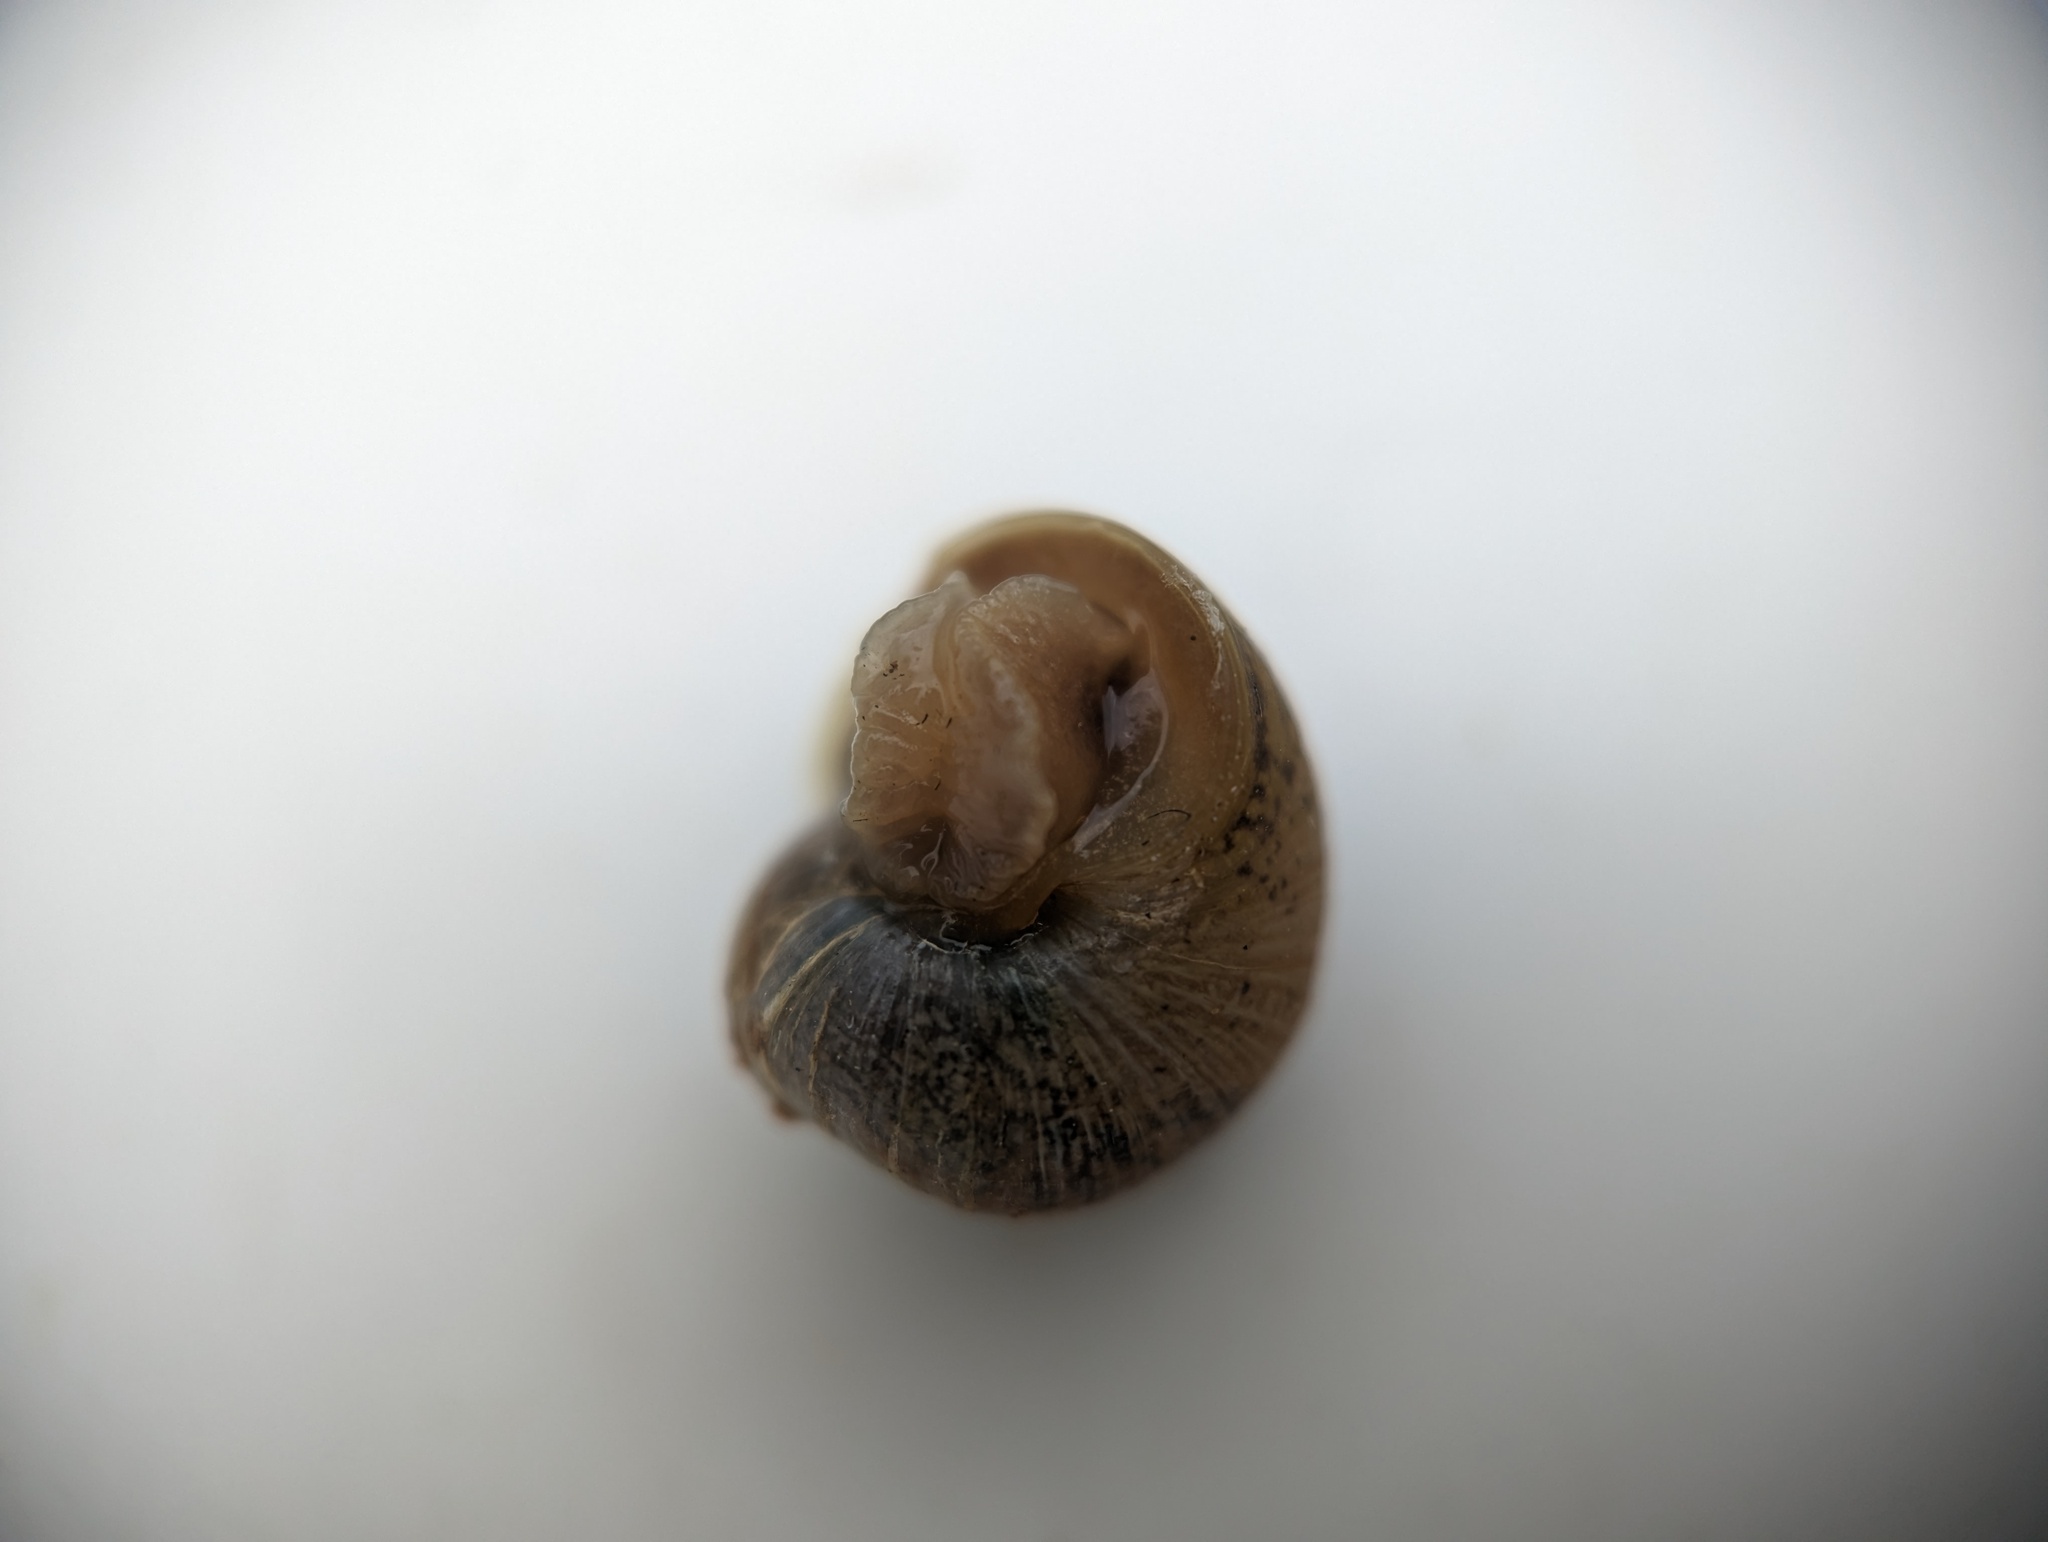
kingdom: Animalia
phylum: Mollusca
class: Gastropoda
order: Stylommatophora
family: Helicidae
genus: Cornu
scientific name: Cornu aspersum
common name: Brown garden snail
